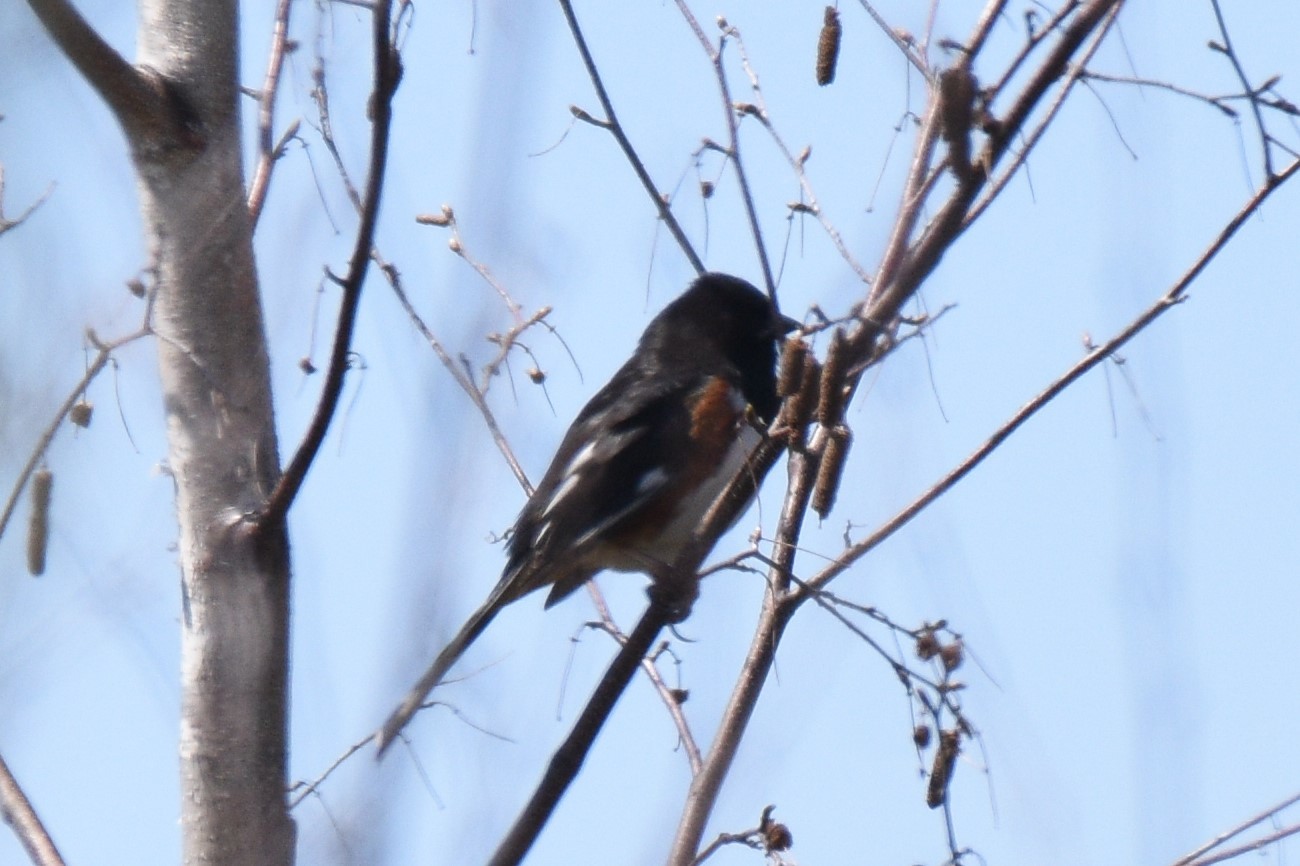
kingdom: Animalia
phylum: Chordata
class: Aves
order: Passeriformes
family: Passerellidae
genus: Pipilo
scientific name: Pipilo erythrophthalmus
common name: Eastern towhee
